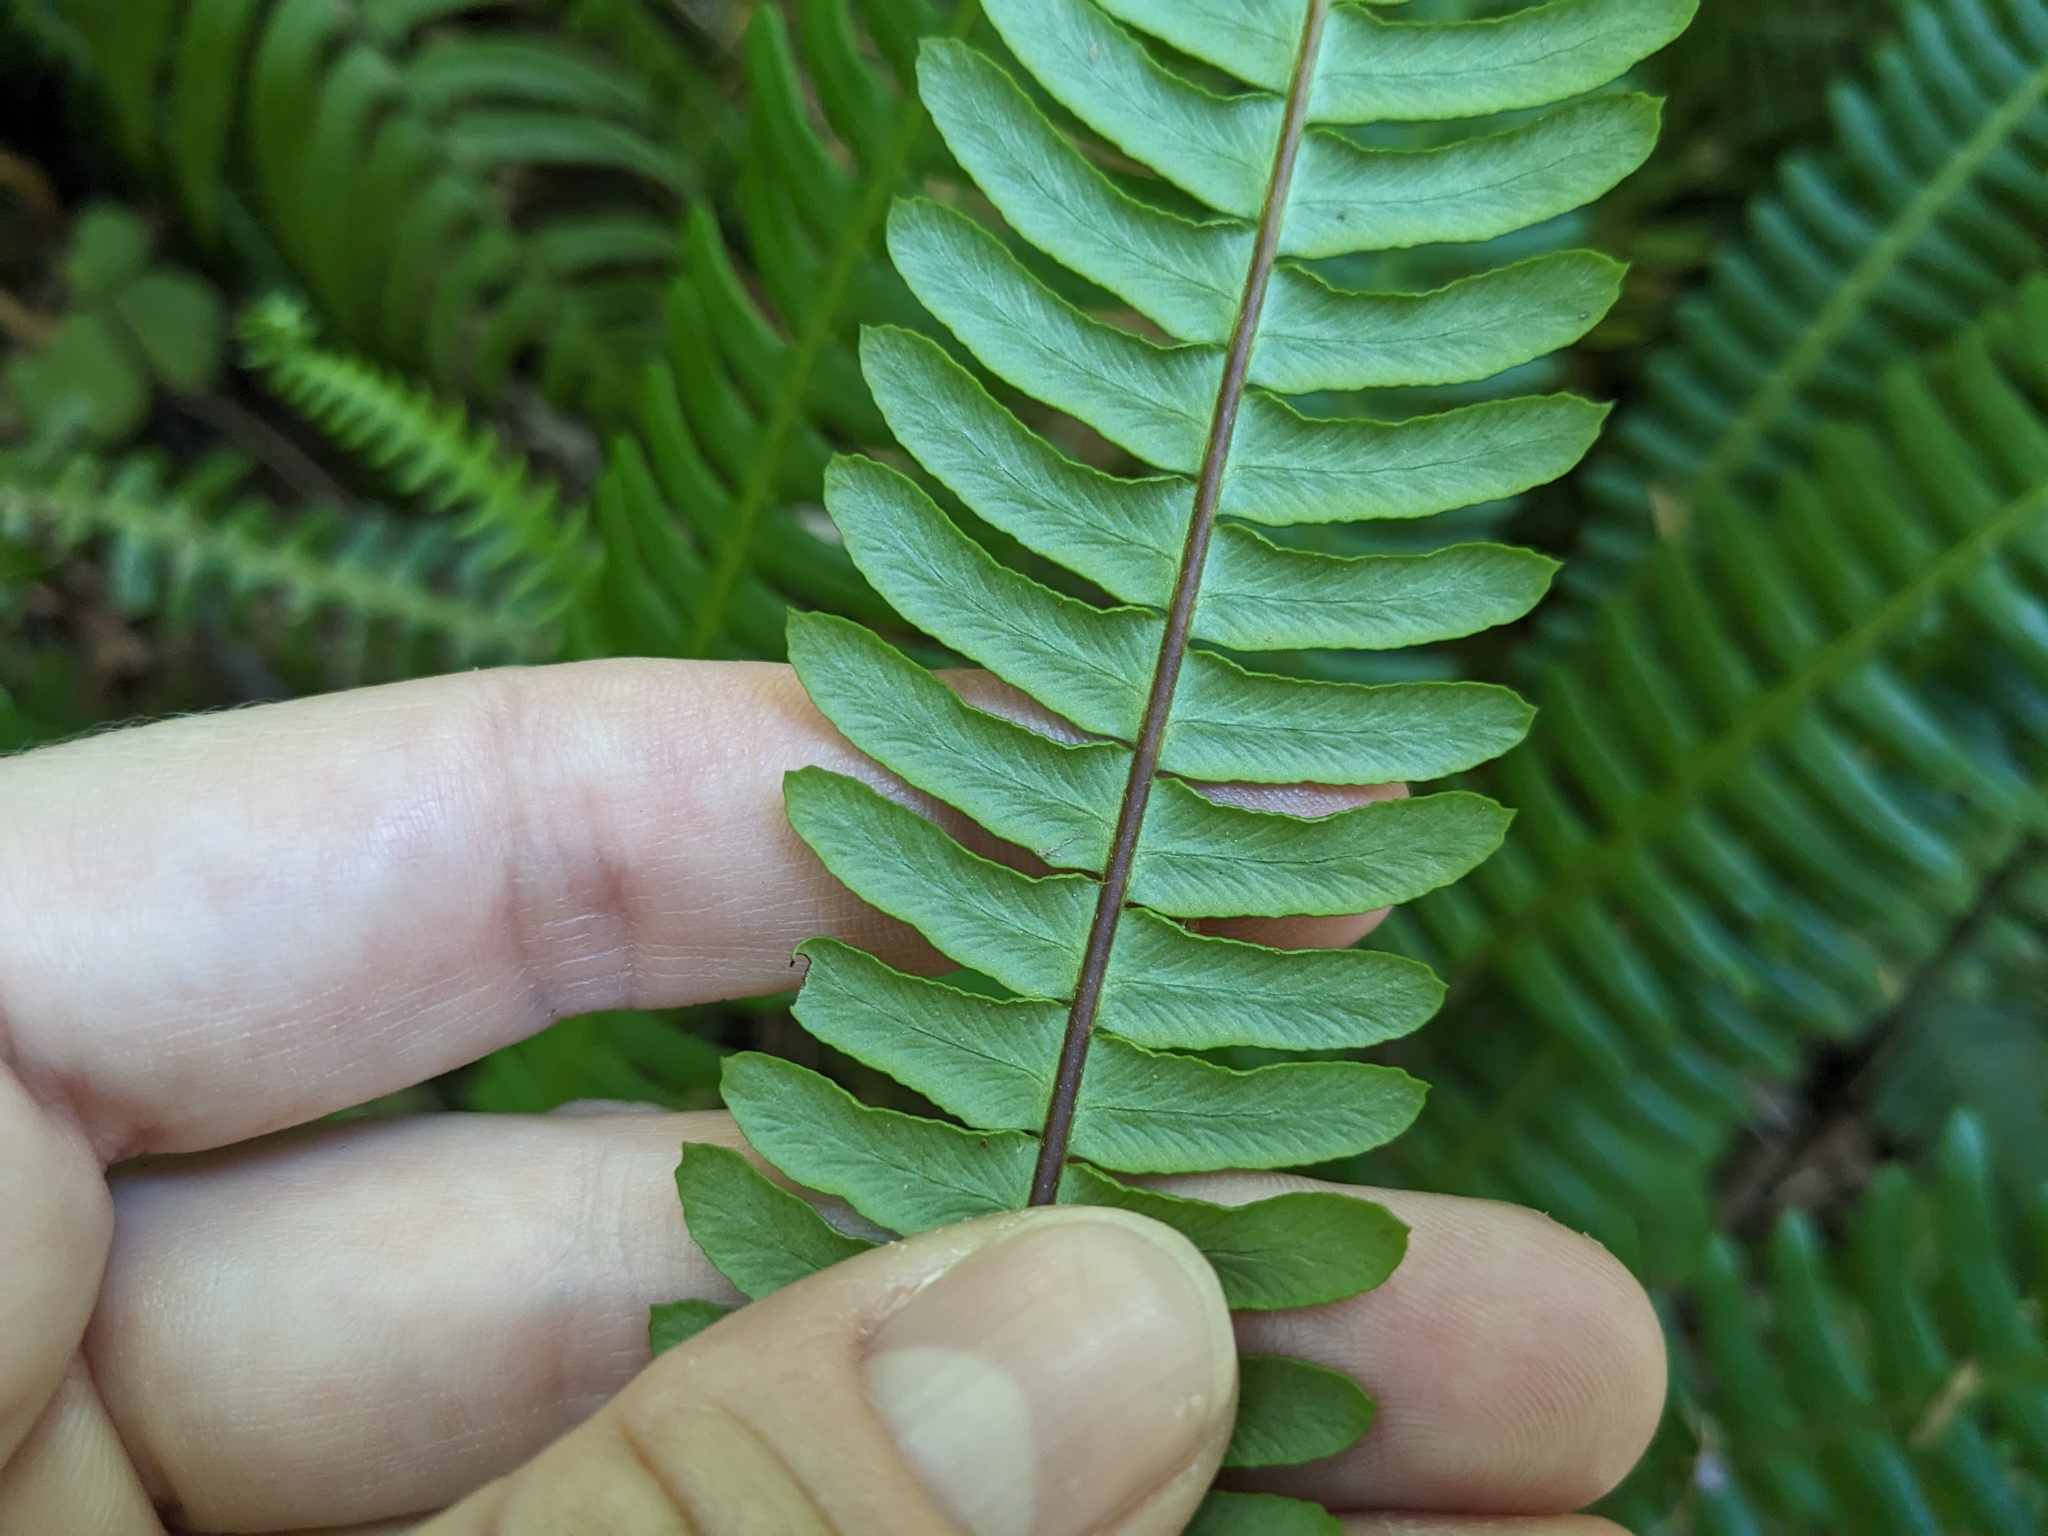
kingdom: Plantae
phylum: Tracheophyta
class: Polypodiopsida
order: Polypodiales
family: Blechnaceae
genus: Struthiopteris
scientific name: Struthiopteris spicant
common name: Deer fern
